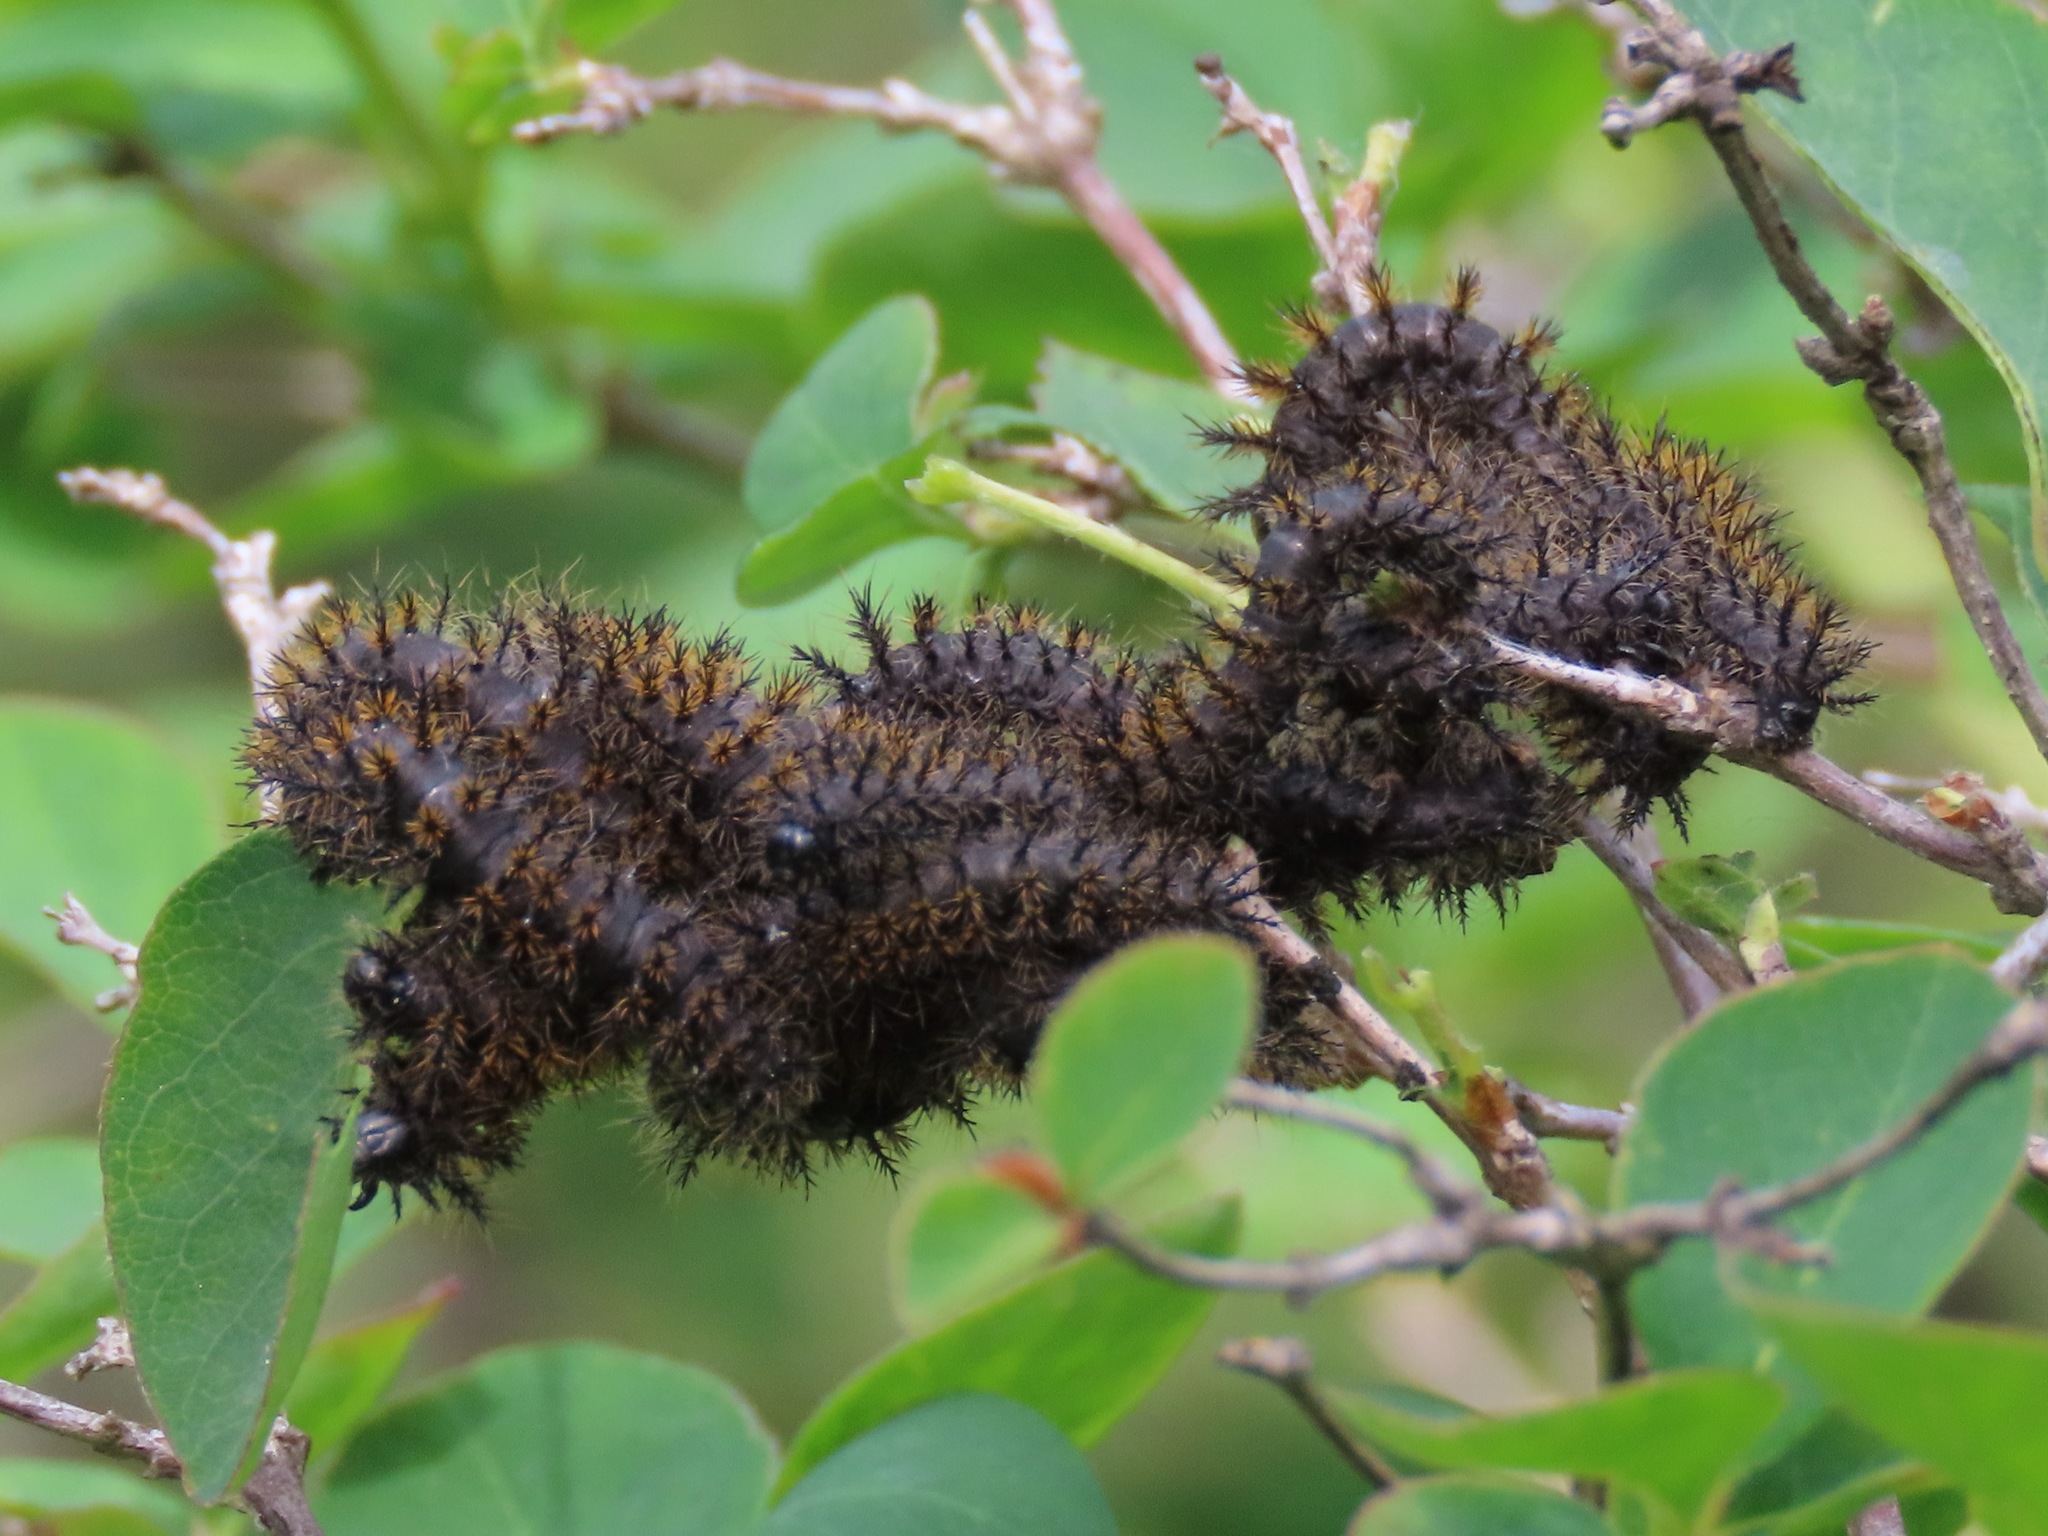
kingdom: Animalia
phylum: Arthropoda
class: Insecta
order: Lepidoptera
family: Saturniidae
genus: Hemileuca
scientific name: Hemileuca eglanterina
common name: Western sheepmoth
